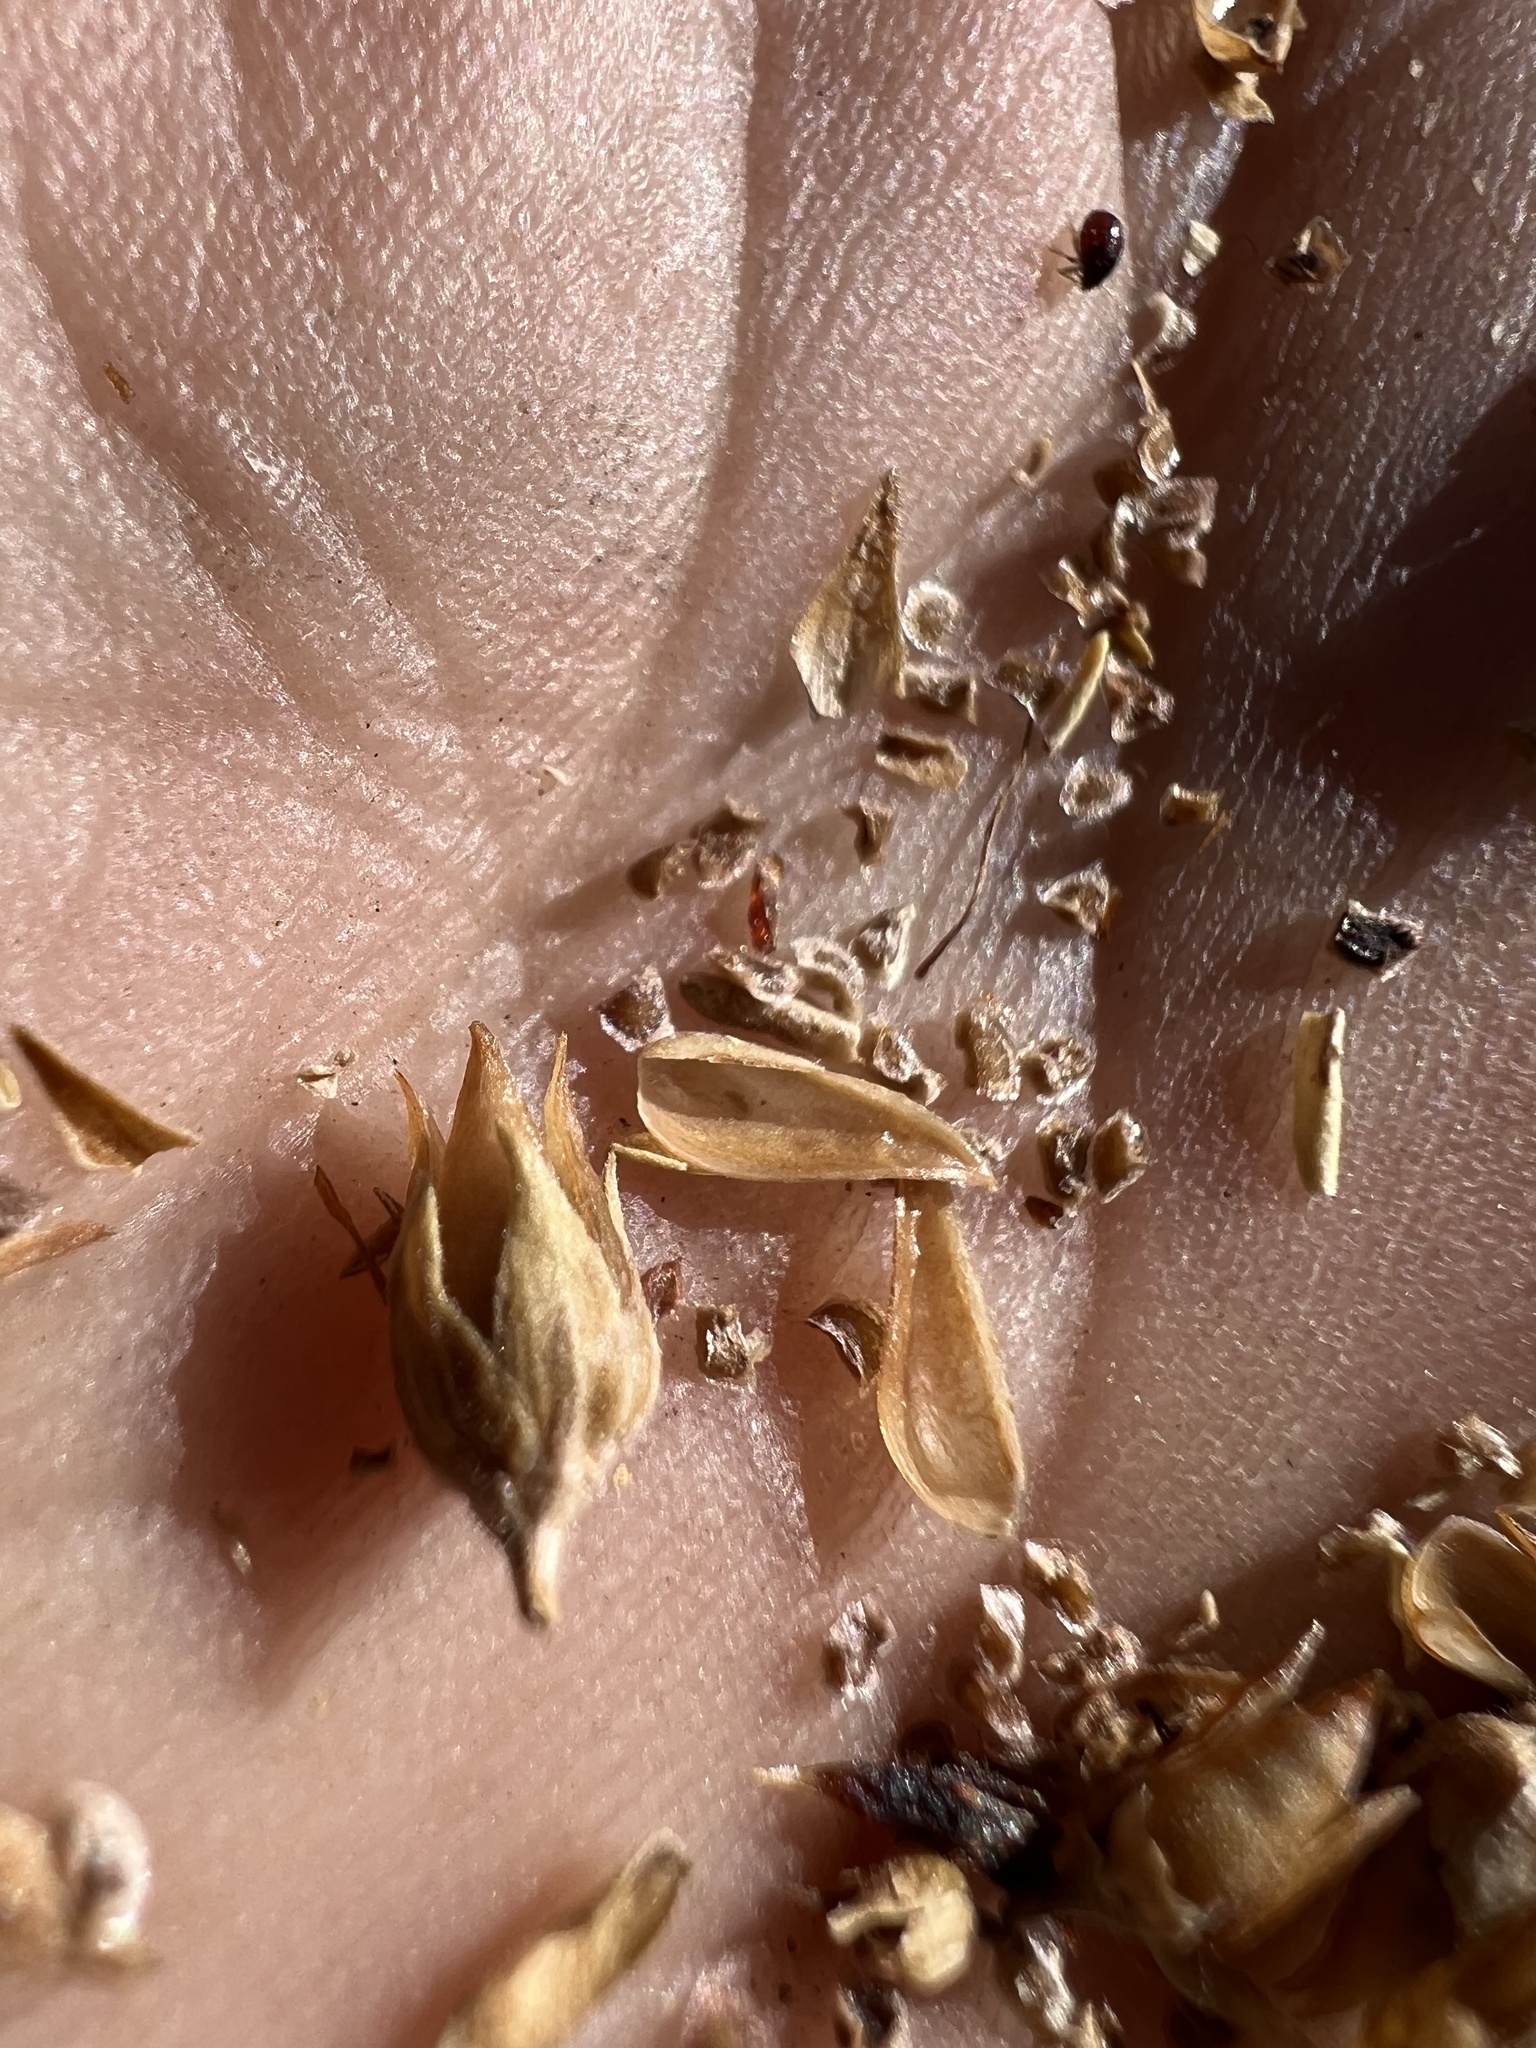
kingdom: Plantae
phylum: Tracheophyta
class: Magnoliopsida
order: Lamiales
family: Plantaginaceae
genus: Keckiella
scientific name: Keckiella rothrockii
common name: Rothrock's keckiella
